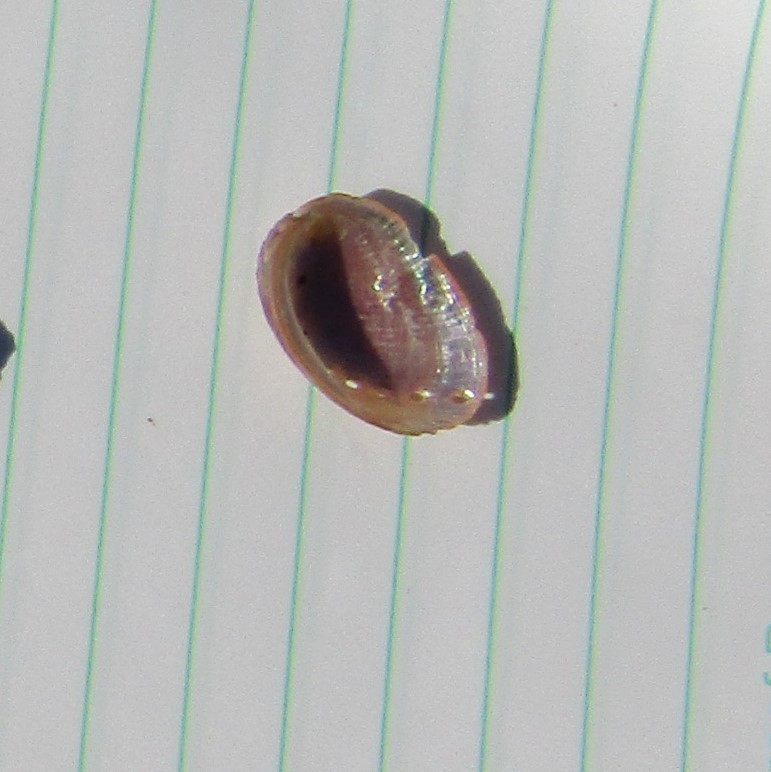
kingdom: Animalia
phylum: Mollusca
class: Gastropoda
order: Lepetellida
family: Haliotidae
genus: Haliotis
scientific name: Haliotis iris
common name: Abalone
